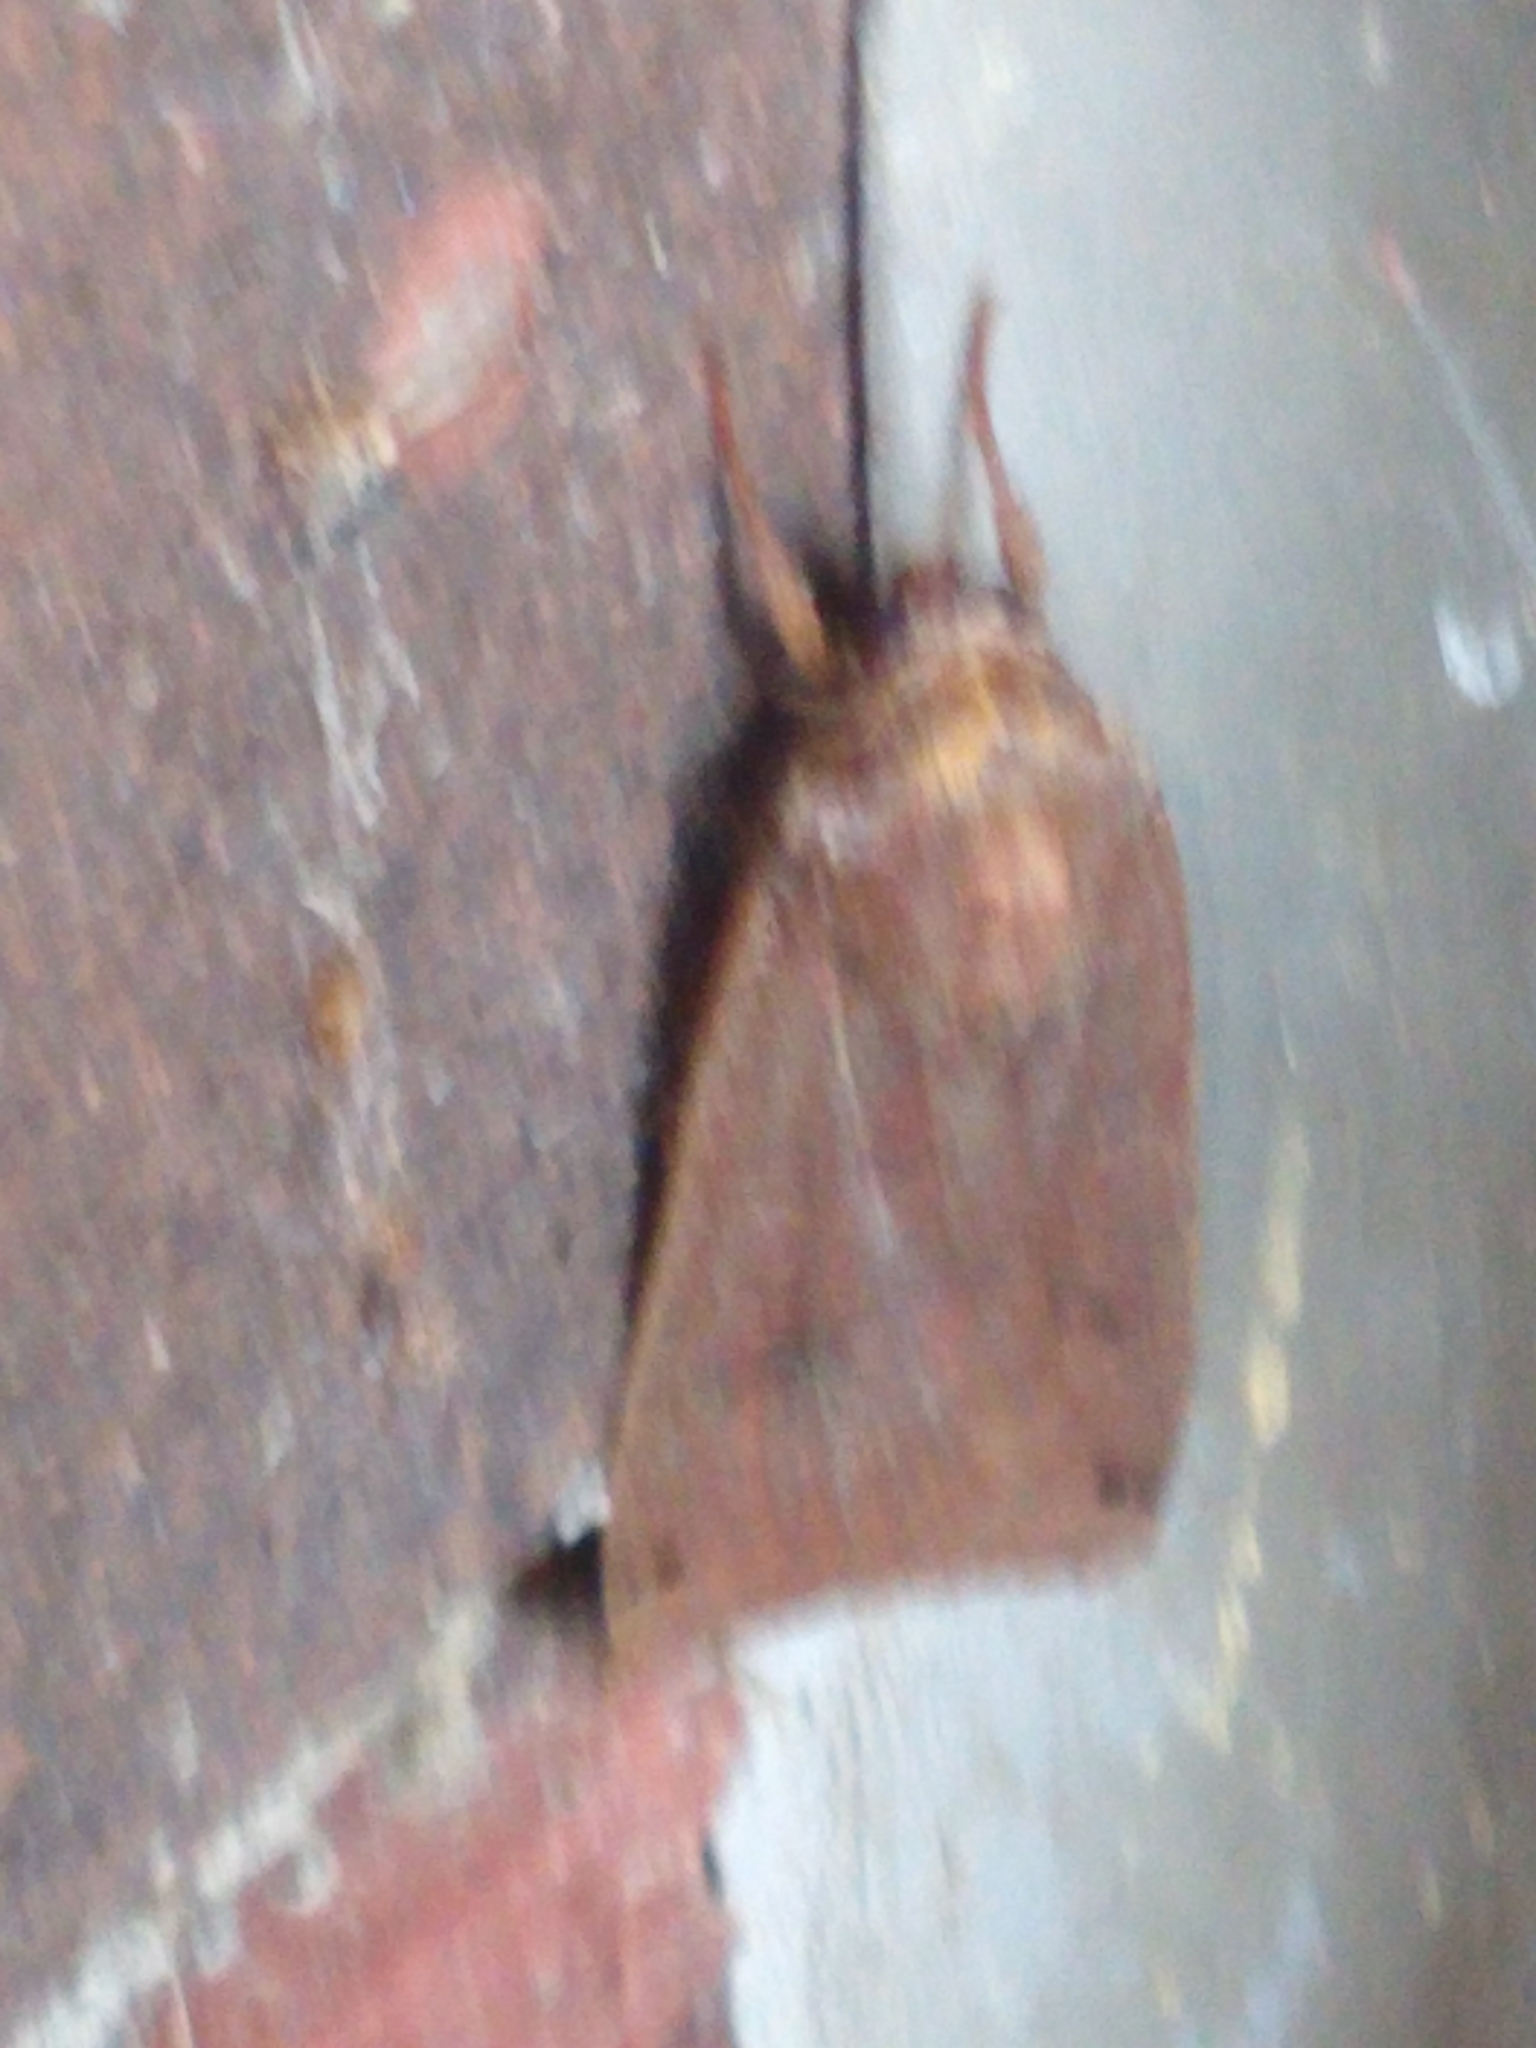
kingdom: Animalia
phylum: Arthropoda
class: Insecta
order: Lepidoptera
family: Noctuidae
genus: Noctua
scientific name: Noctua pronuba
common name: Large yellow underwing
